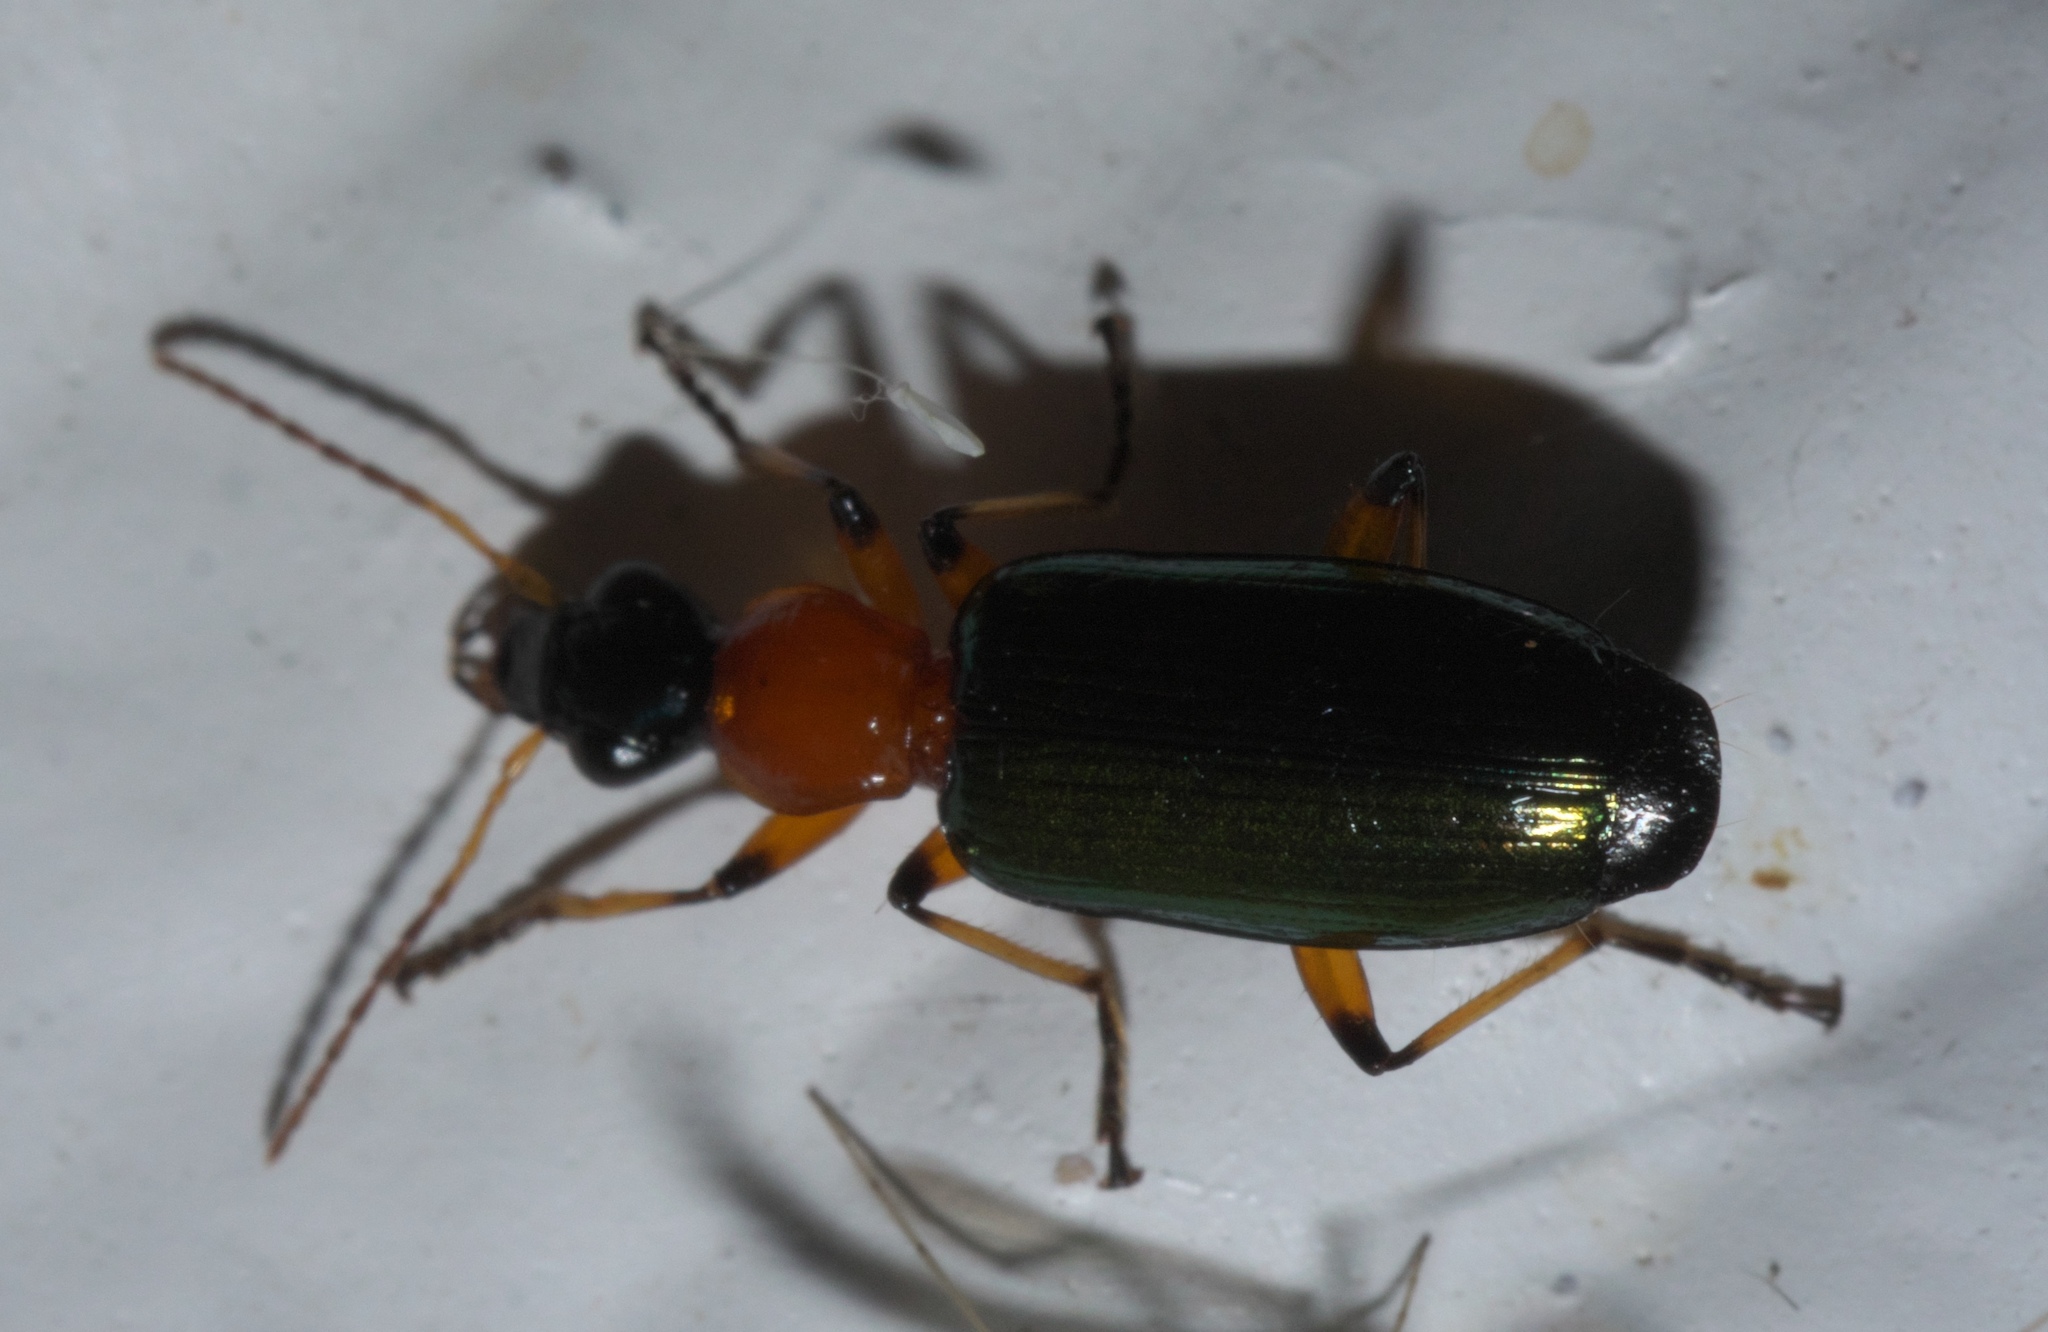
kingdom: Animalia
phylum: Arthropoda
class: Insecta
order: Coleoptera
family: Carabidae
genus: Calleida
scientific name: Calleida cordicollis
